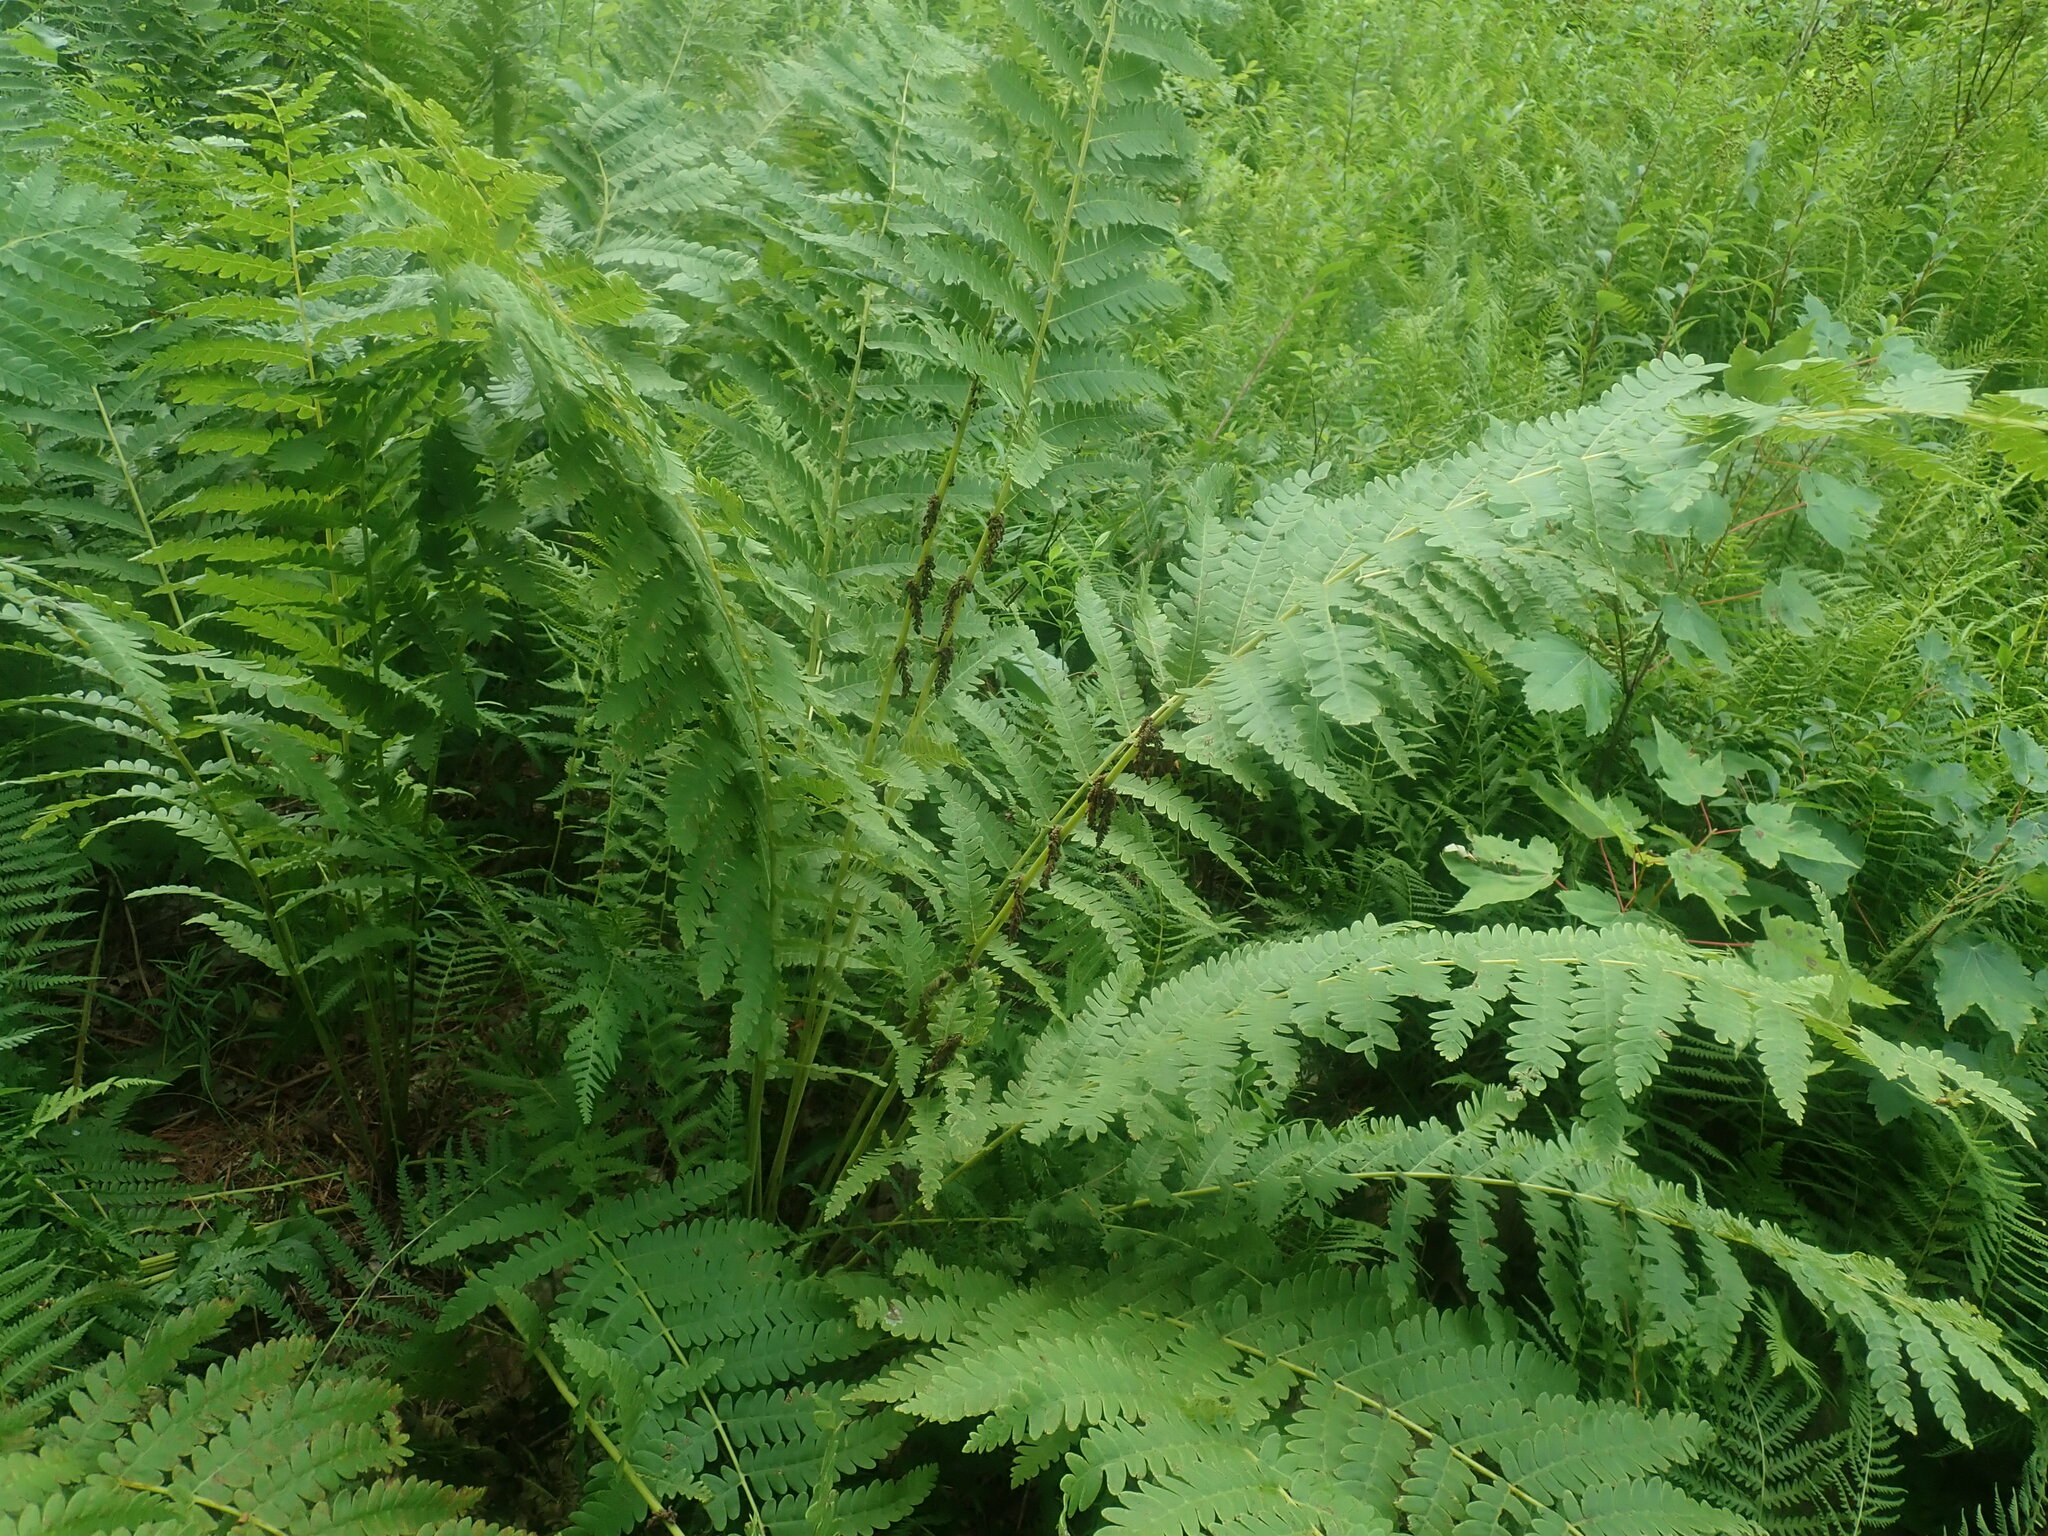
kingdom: Plantae
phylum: Tracheophyta
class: Polypodiopsida
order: Osmundales
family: Osmundaceae
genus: Claytosmunda
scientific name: Claytosmunda claytoniana
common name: Clayton's fern
